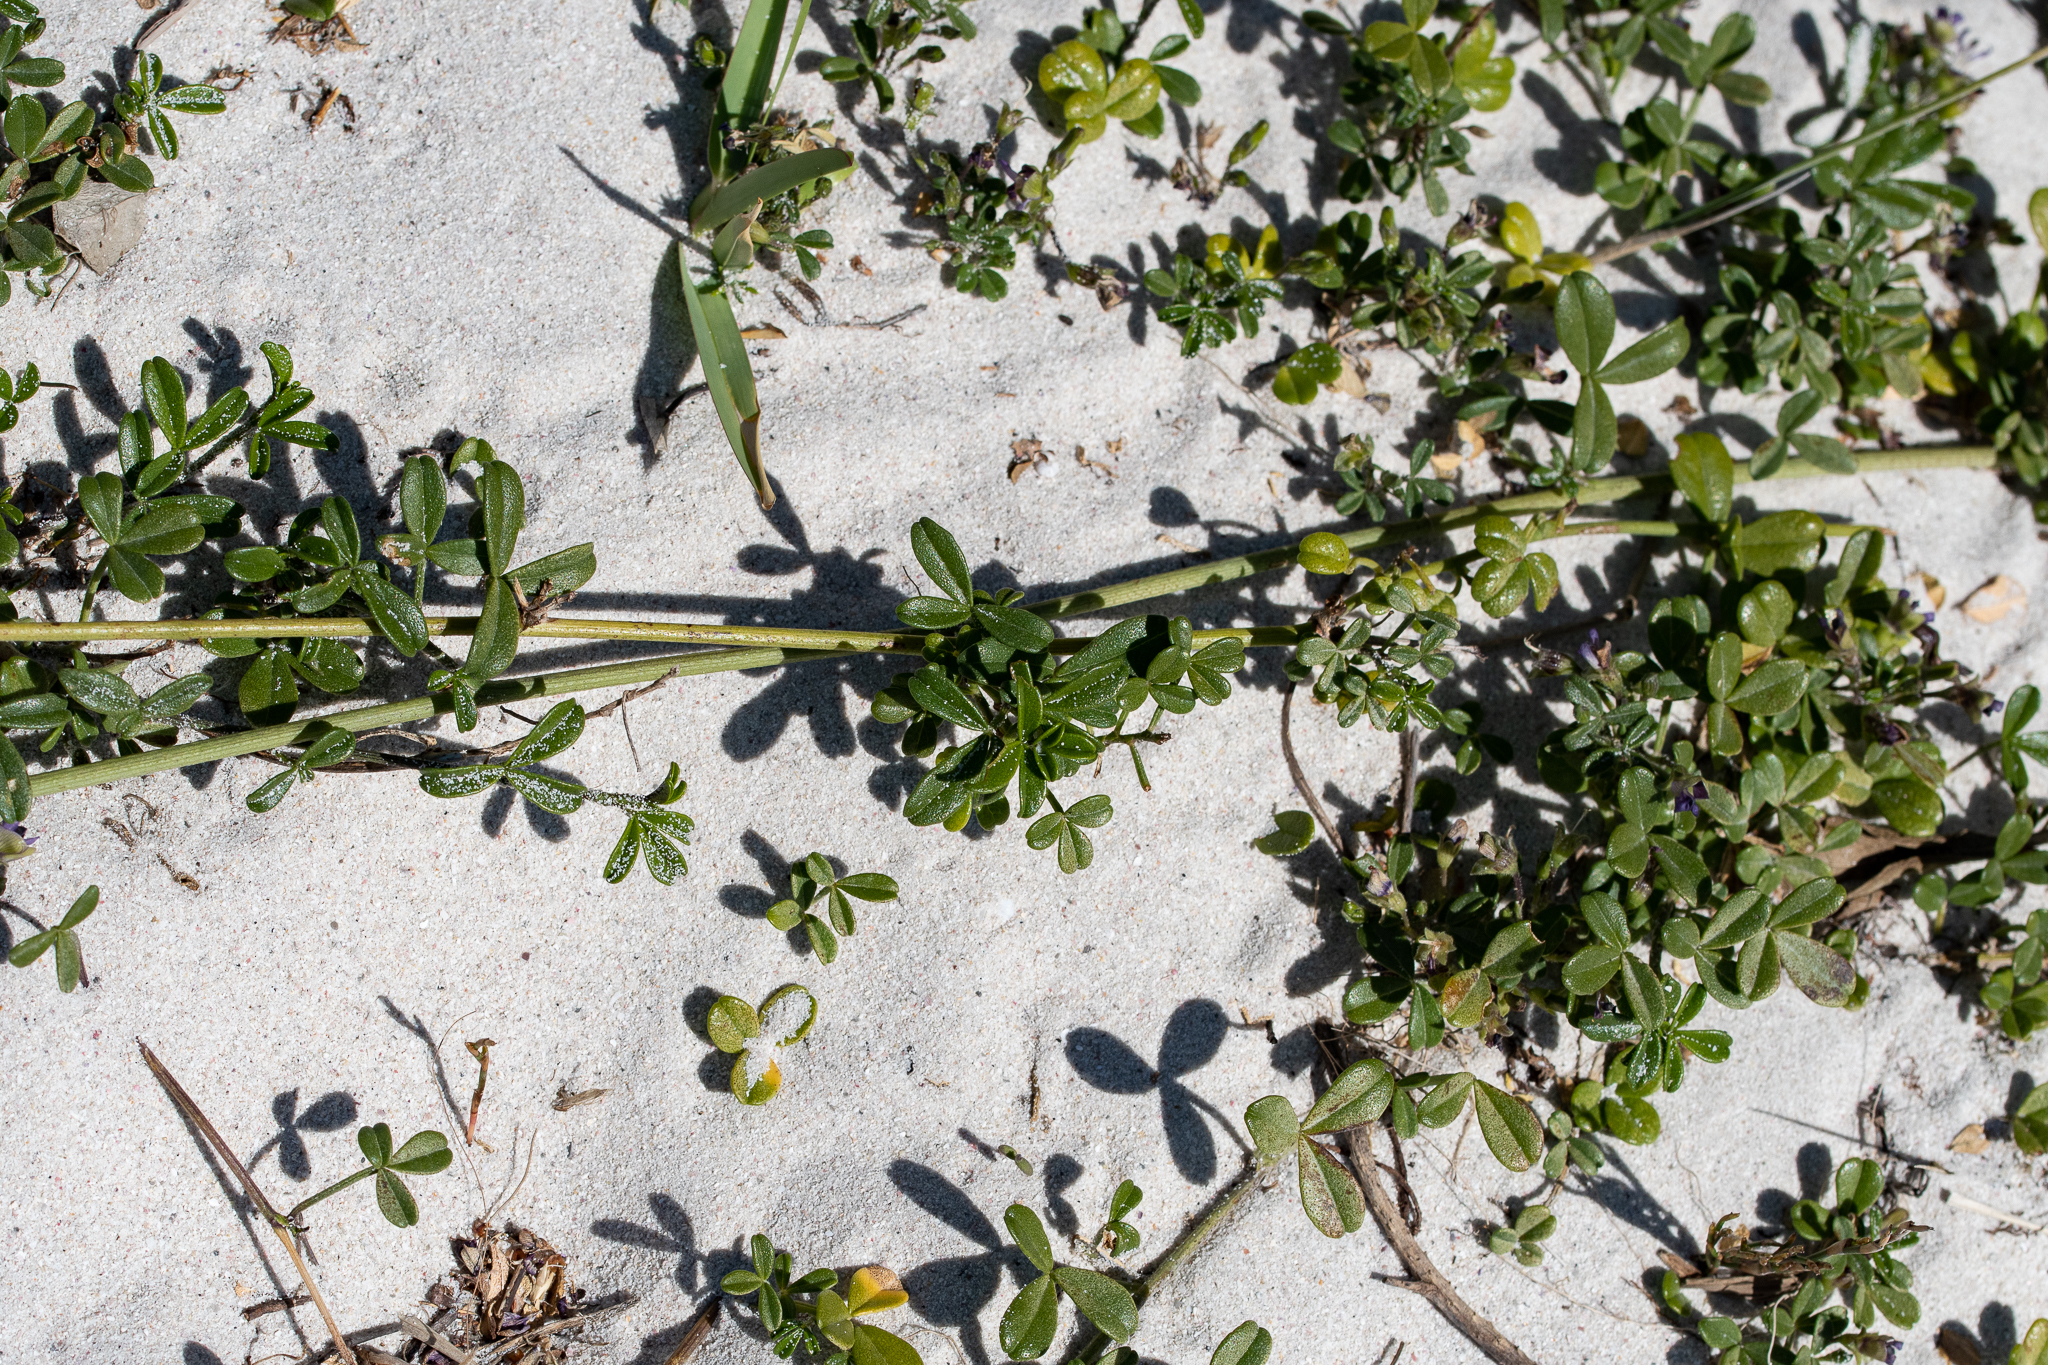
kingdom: Plantae
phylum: Tracheophyta
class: Magnoliopsida
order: Fabales
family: Fabaceae
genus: Psoralea
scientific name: Psoralea repens
